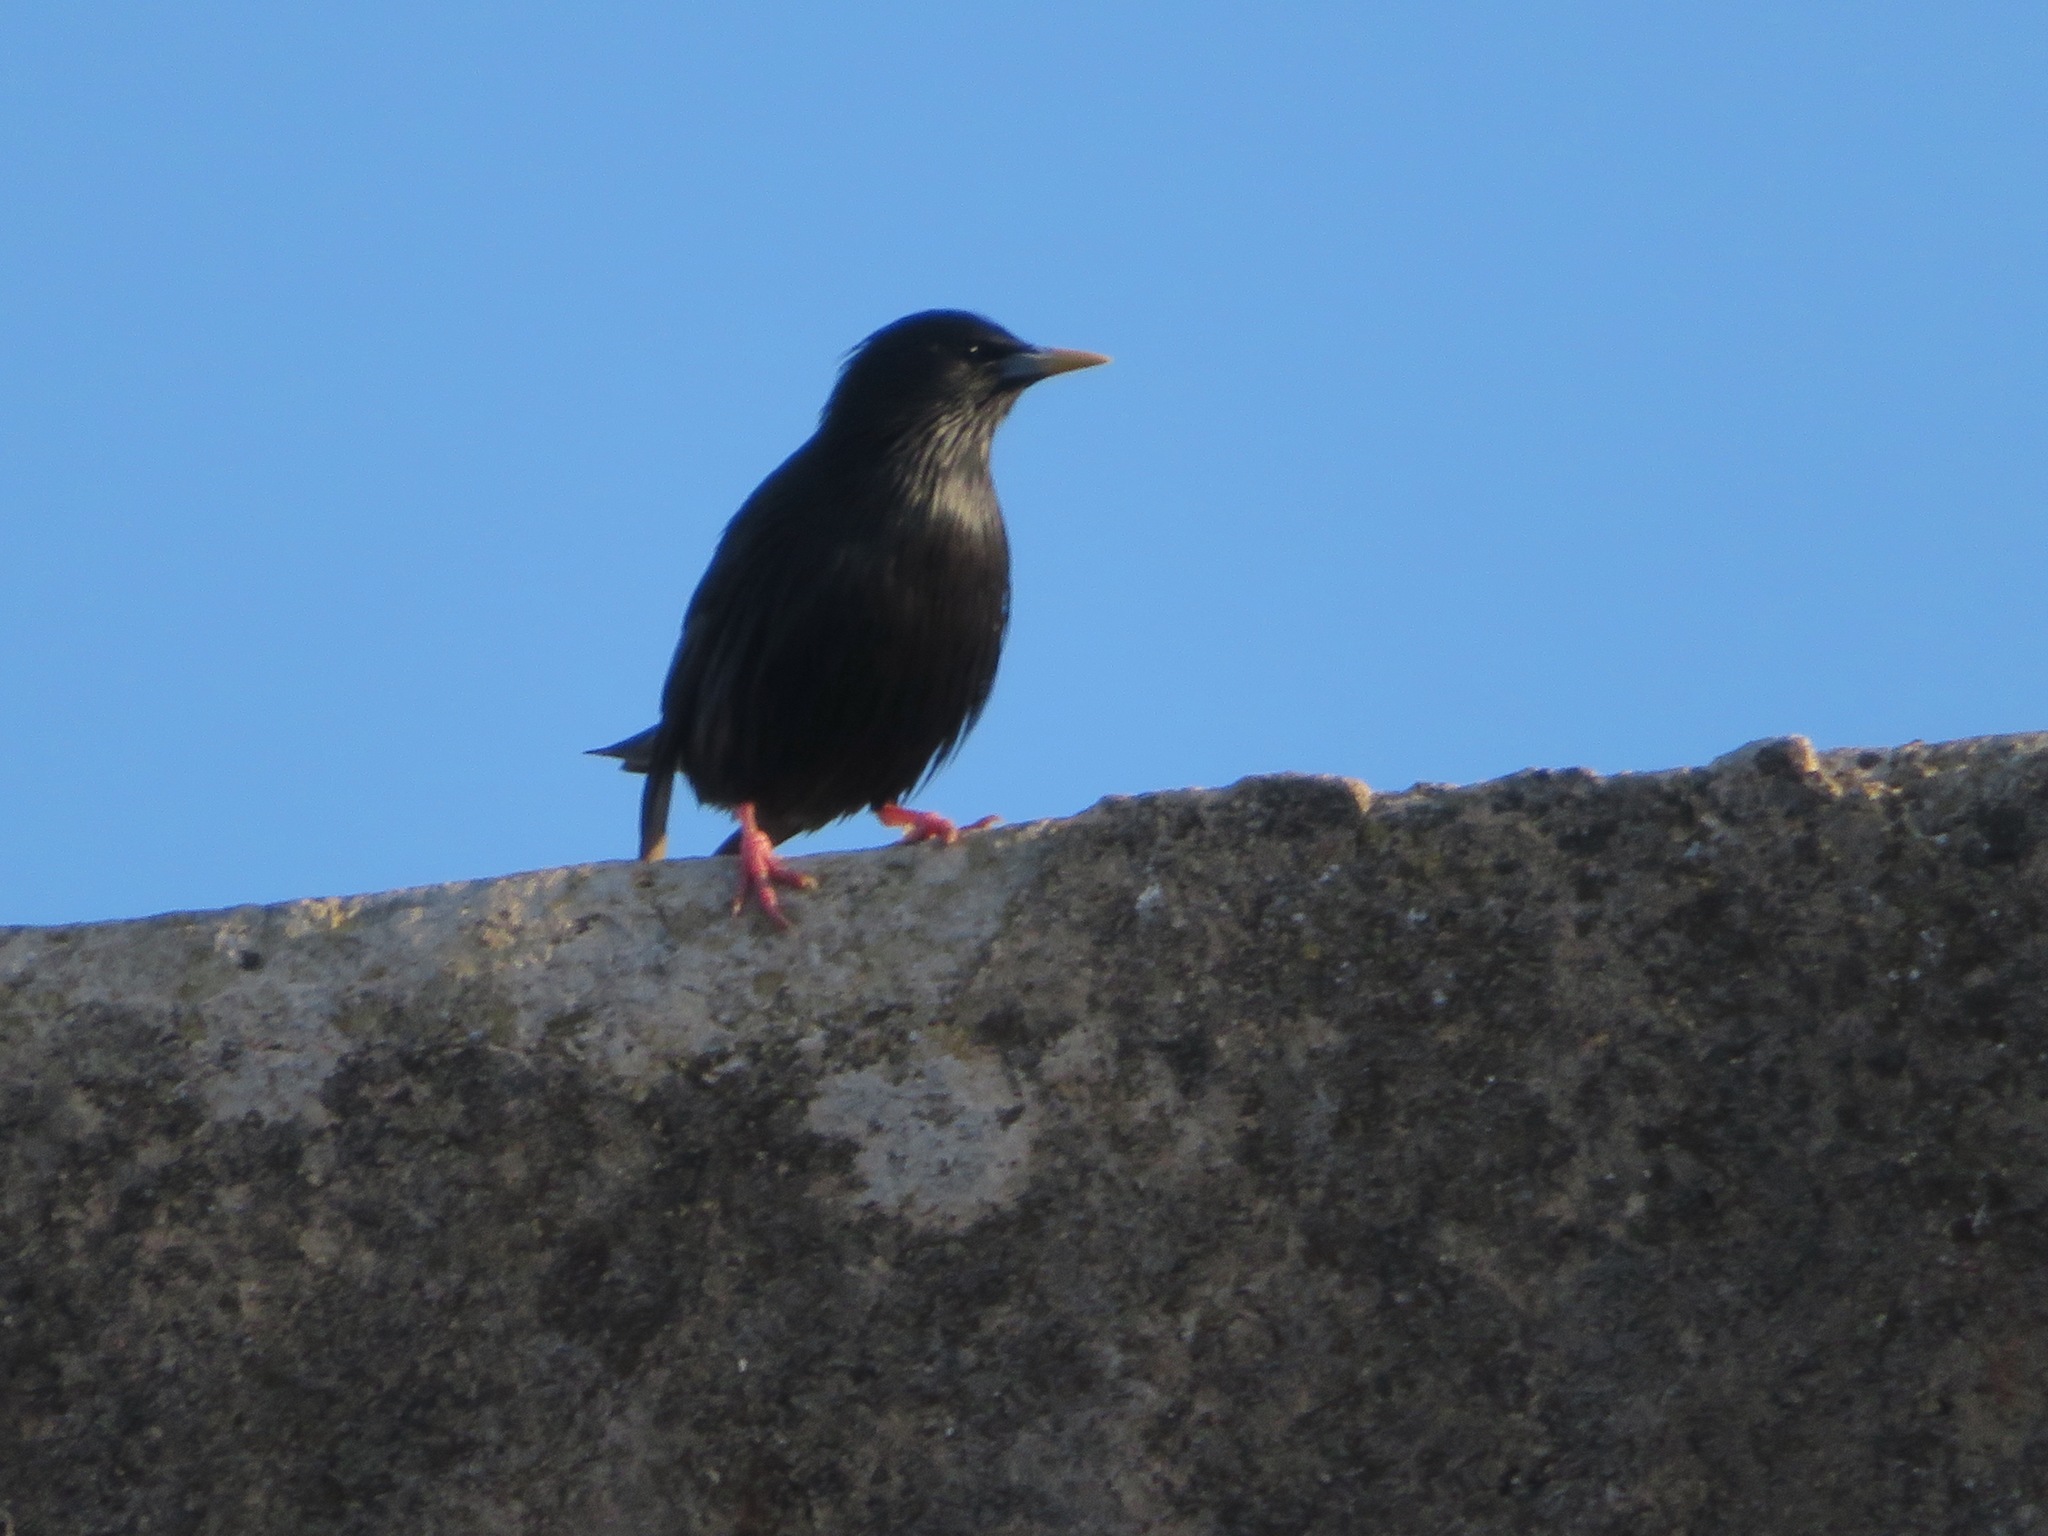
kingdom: Animalia
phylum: Chordata
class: Aves
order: Passeriformes
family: Sturnidae
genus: Sturnus
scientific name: Sturnus unicolor
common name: Spotless starling
